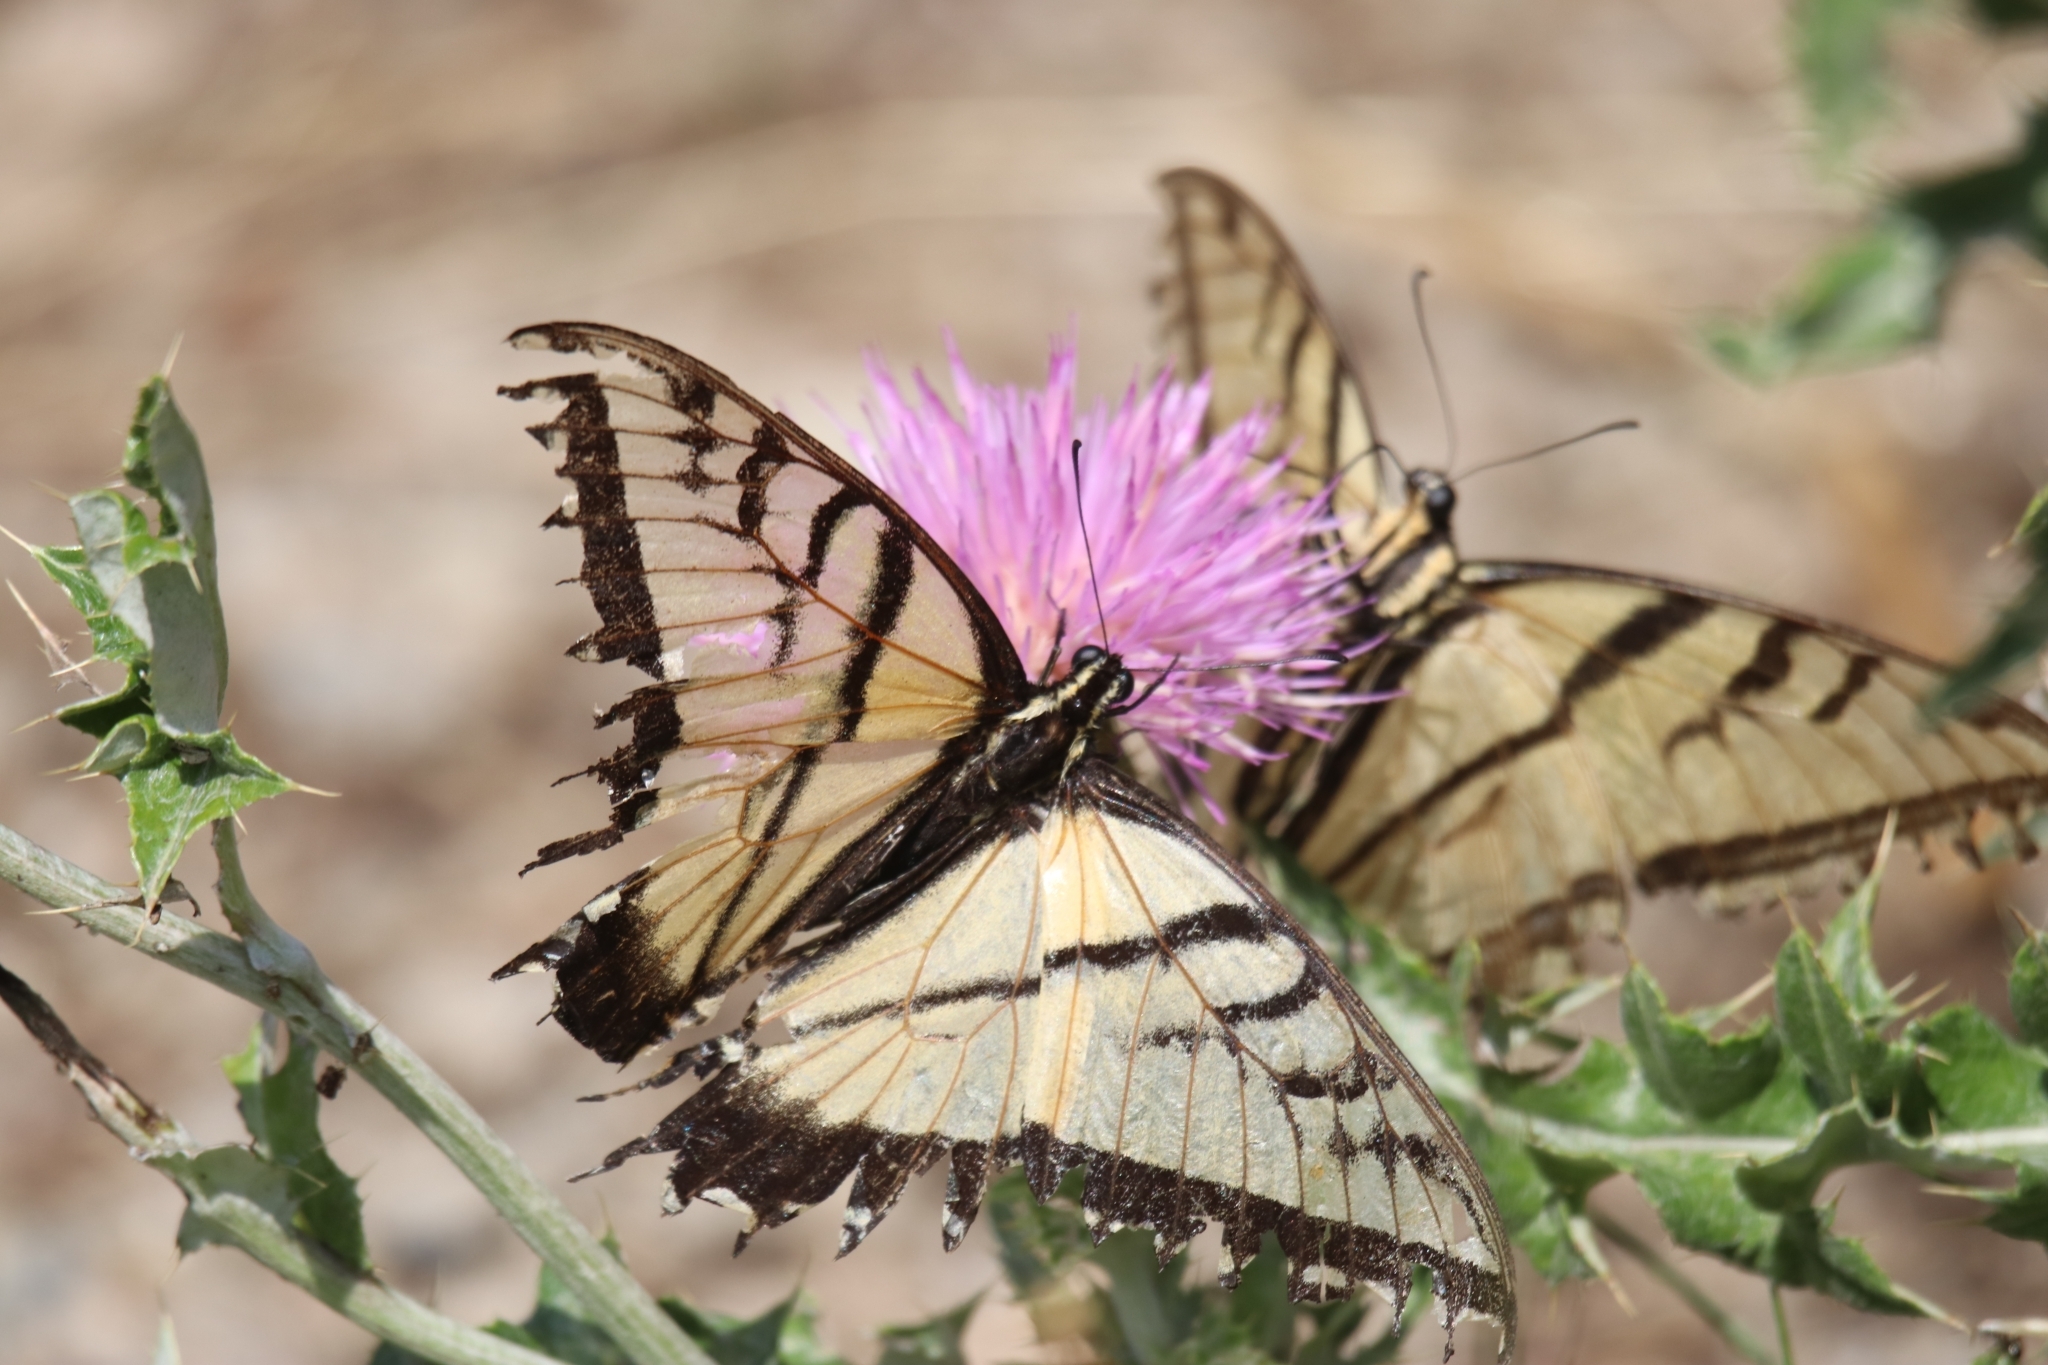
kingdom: Animalia
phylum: Arthropoda
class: Insecta
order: Lepidoptera
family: Papilionidae
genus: Papilio
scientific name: Papilio multicaudata
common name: Two-tailed tiger swallowtail
